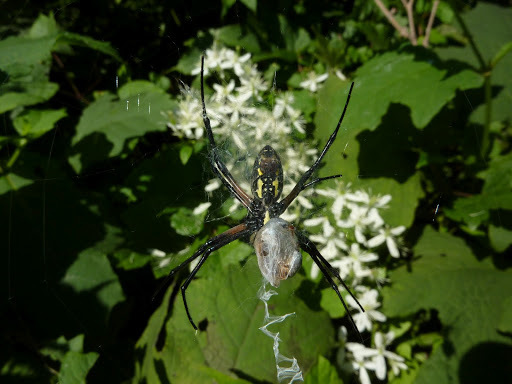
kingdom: Animalia
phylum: Arthropoda
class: Arachnida
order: Araneae
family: Araneidae
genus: Argiope
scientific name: Argiope aurantia
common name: Orb weavers
